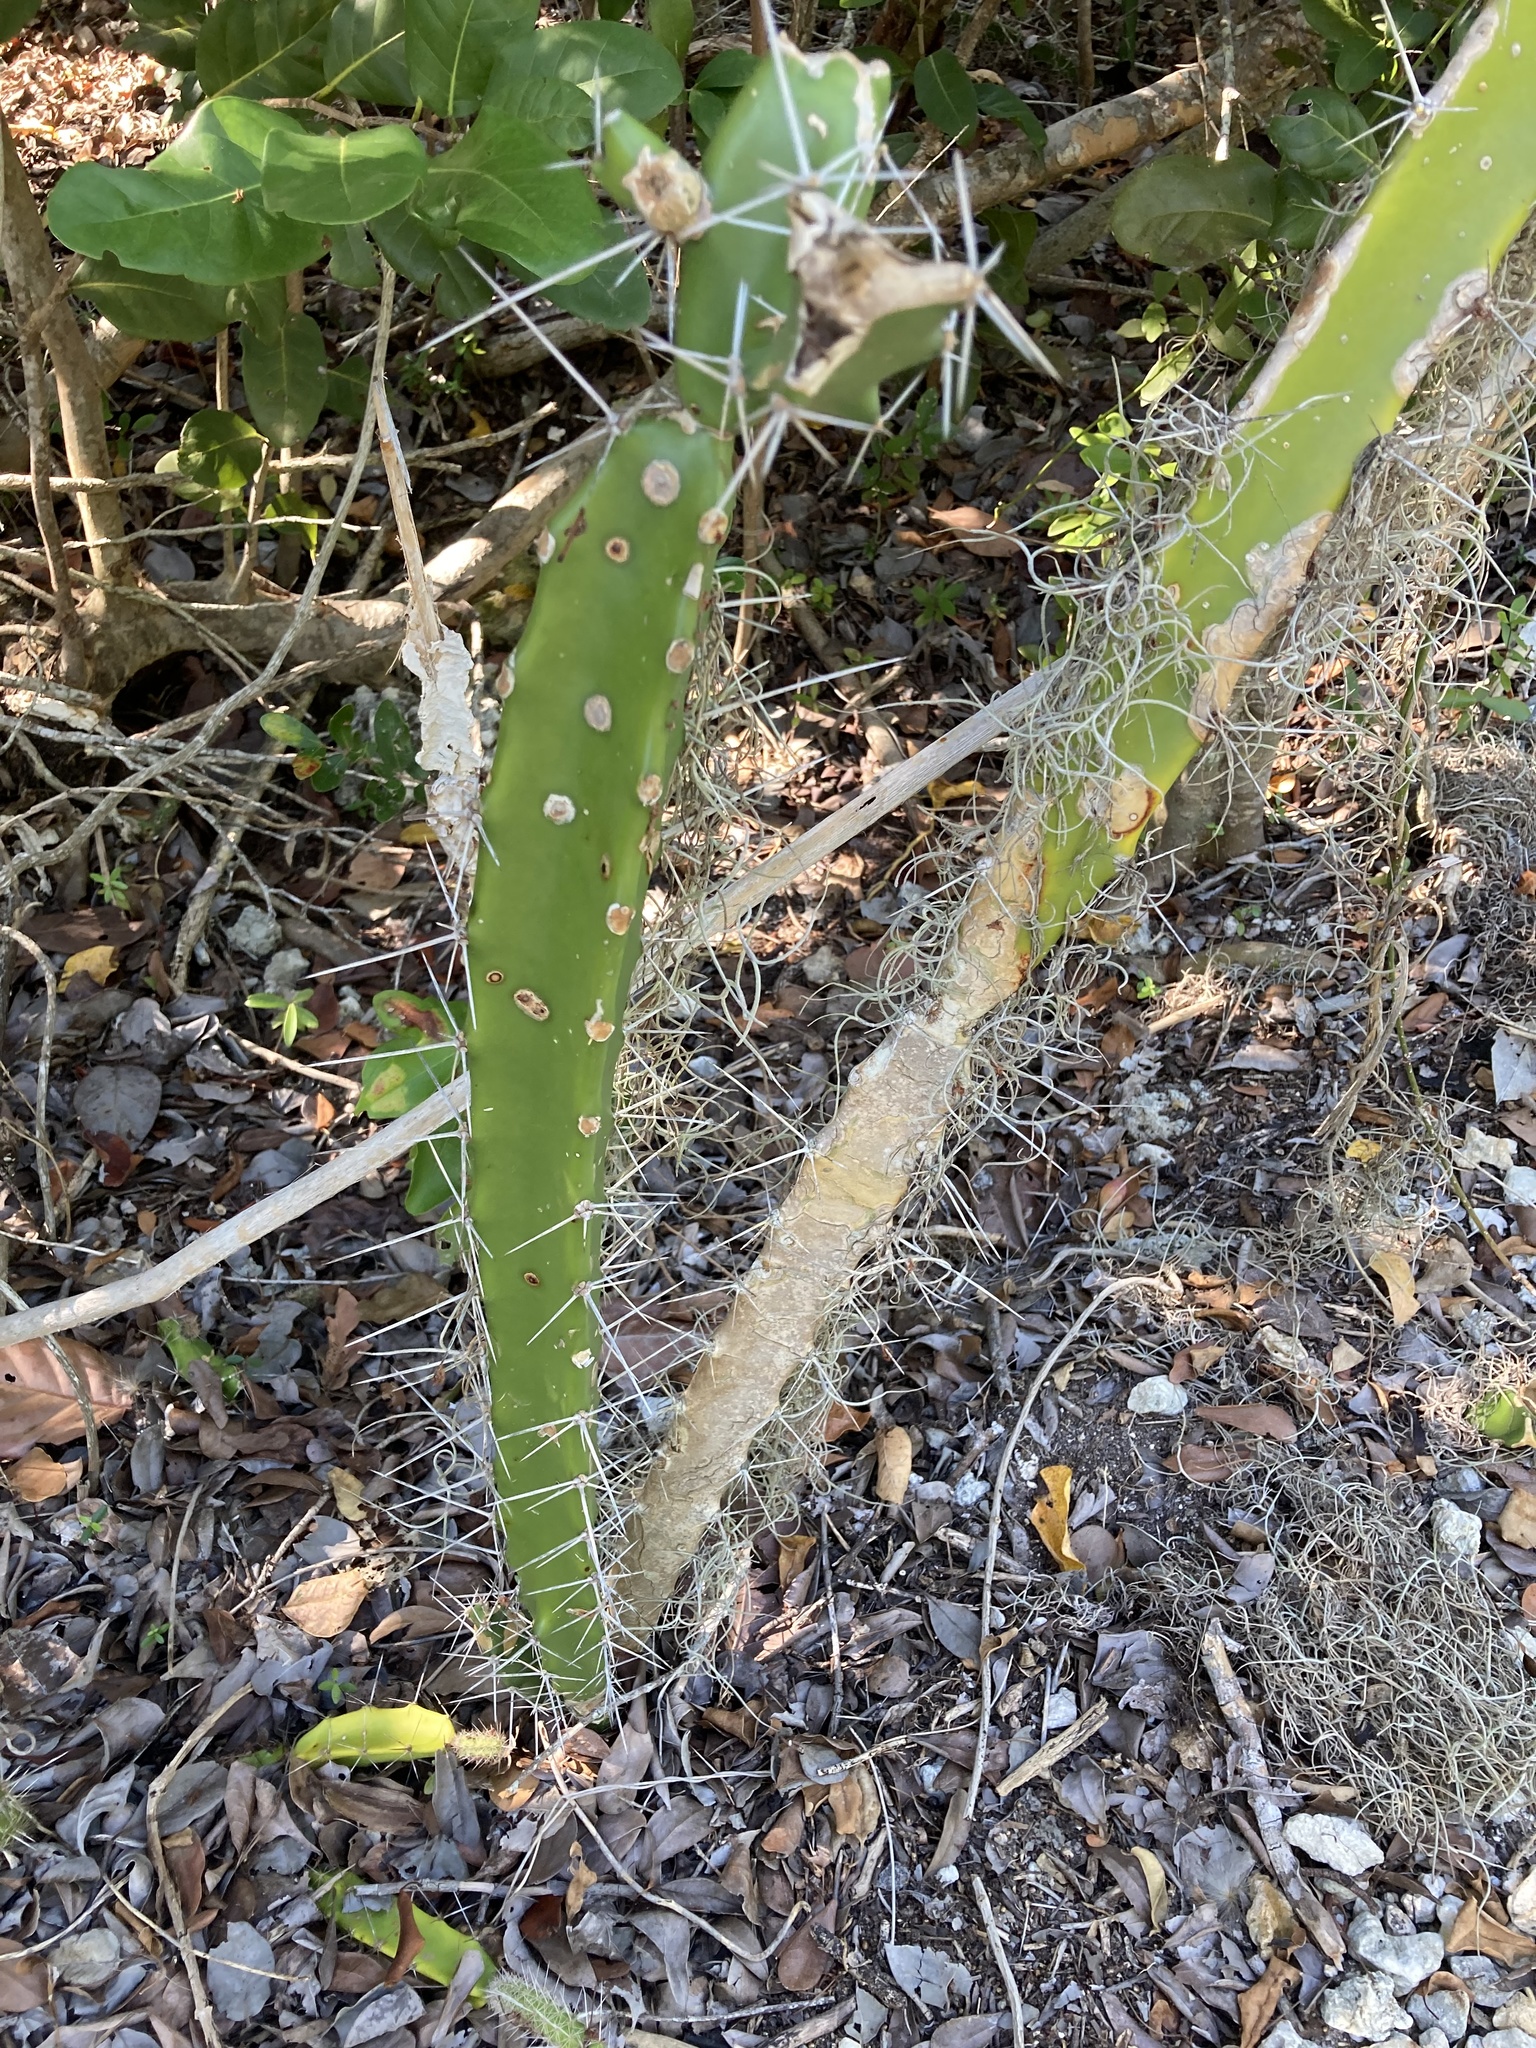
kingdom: Plantae
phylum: Tracheophyta
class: Magnoliopsida
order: Caryophyllales
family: Cactaceae
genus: Acanthocereus
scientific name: Acanthocereus tetragonus
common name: Triangle cactus
